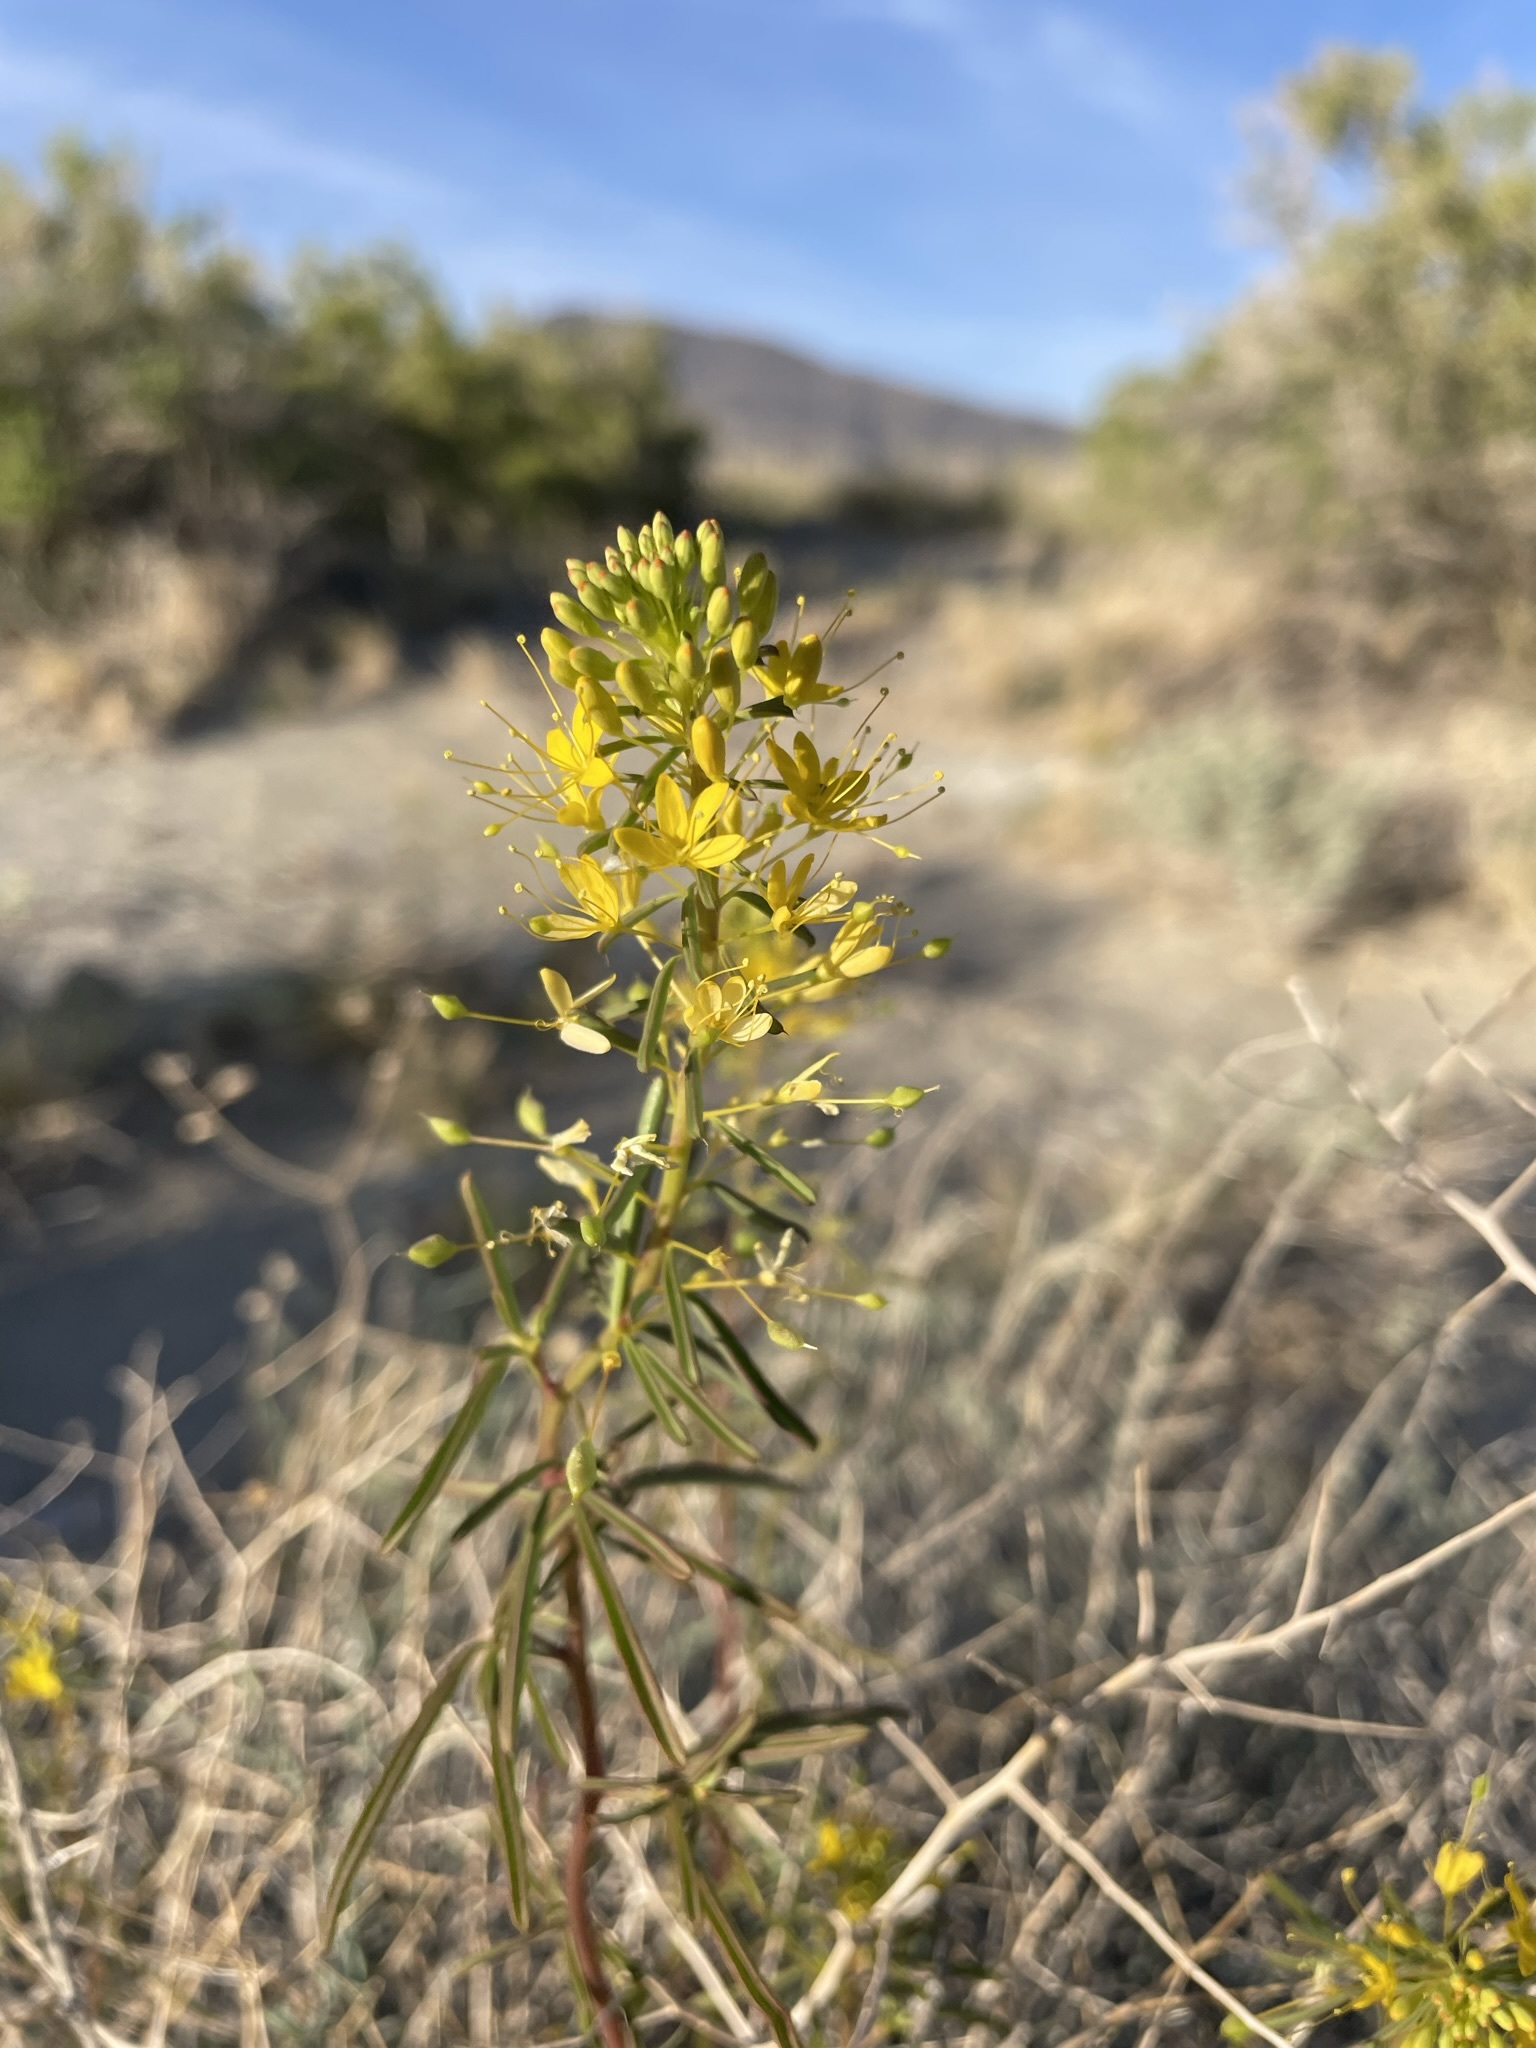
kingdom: Plantae
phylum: Tracheophyta
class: Magnoliopsida
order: Brassicales
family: Cleomaceae
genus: Cleomella
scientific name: Cleomella plocasperma
